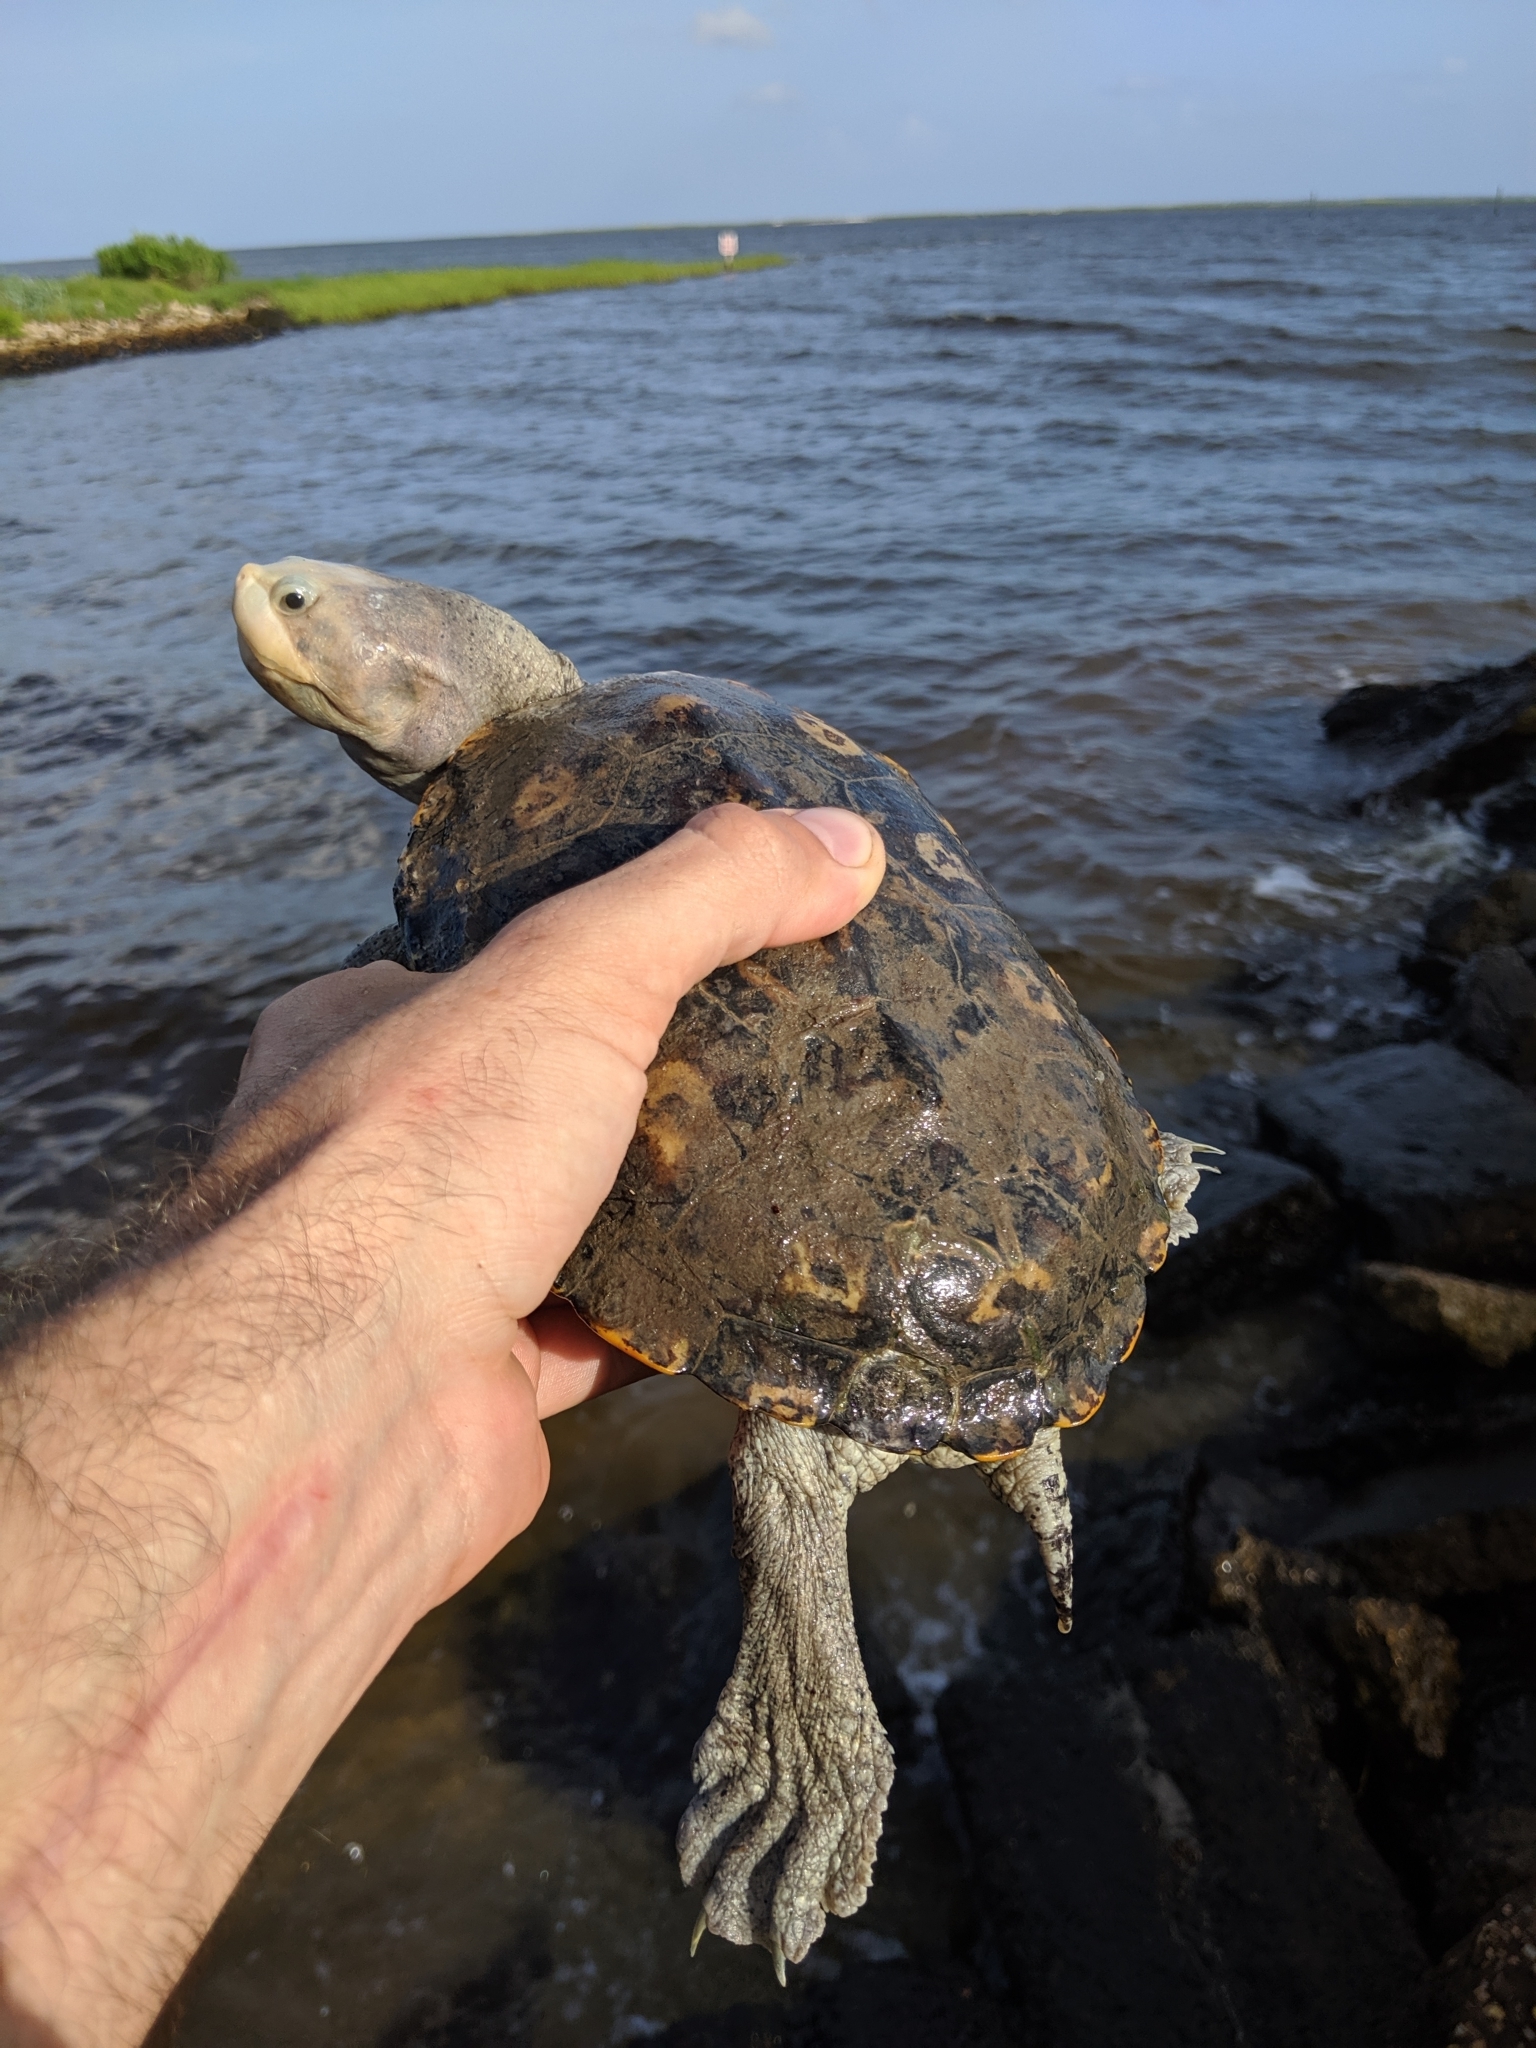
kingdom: Animalia
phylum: Chordata
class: Testudines
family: Emydidae
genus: Malaclemys
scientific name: Malaclemys terrapin
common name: Diamondback terrapin
